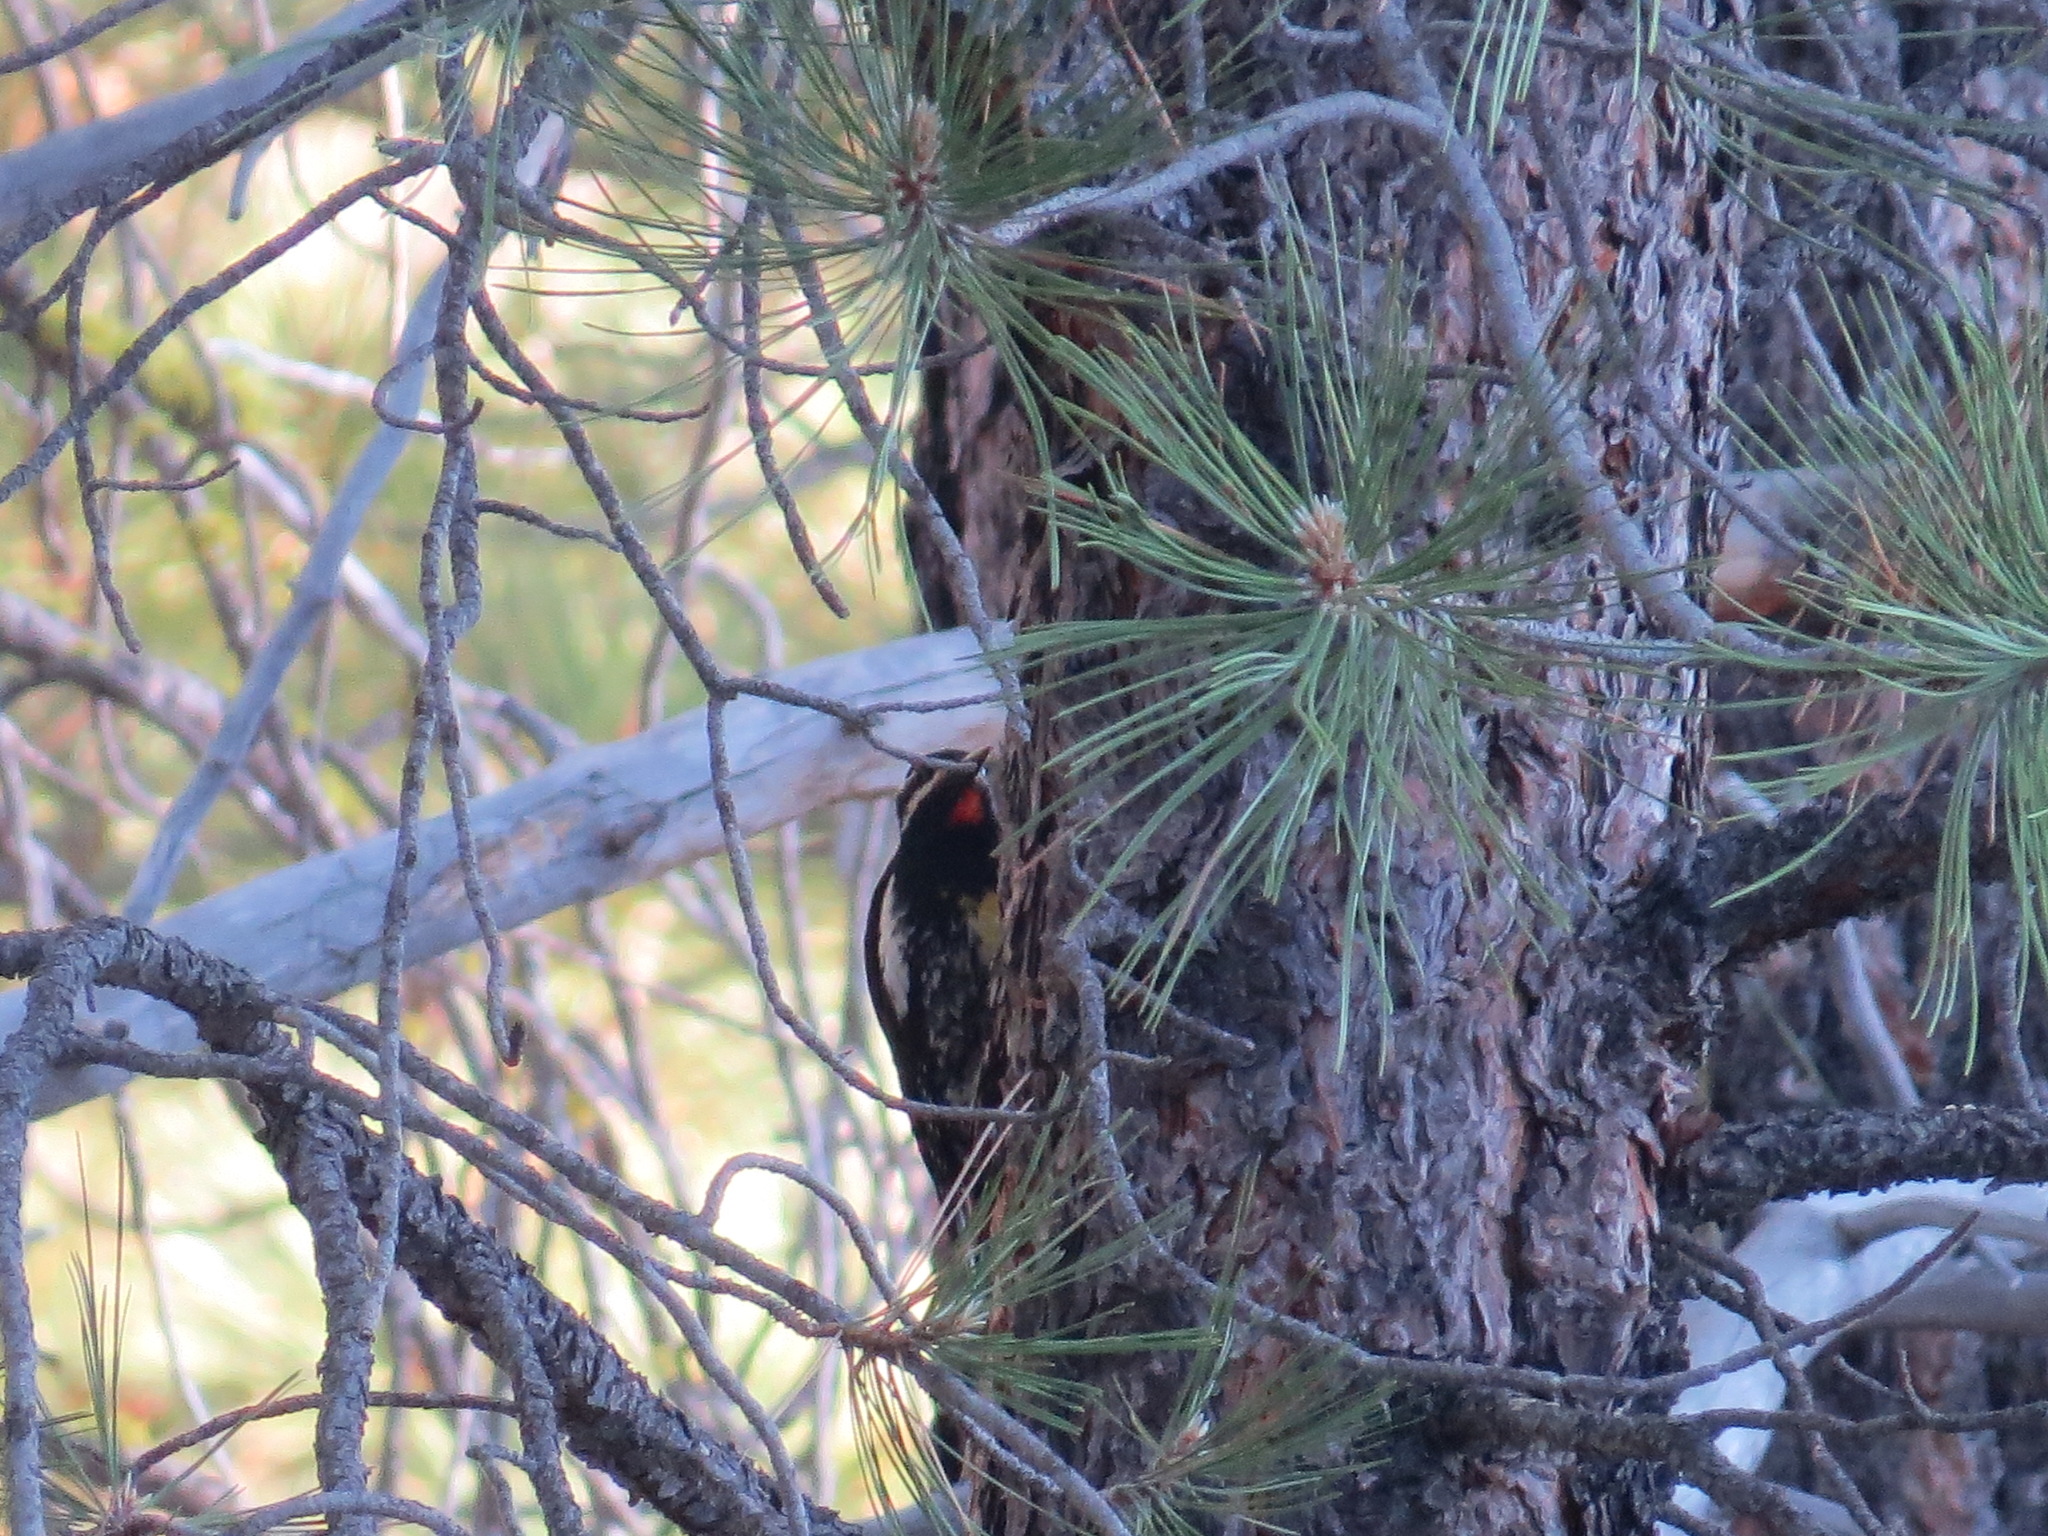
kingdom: Animalia
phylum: Chordata
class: Aves
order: Piciformes
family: Picidae
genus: Sphyrapicus
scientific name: Sphyrapicus thyroideus
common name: Williamson's sapsucker
